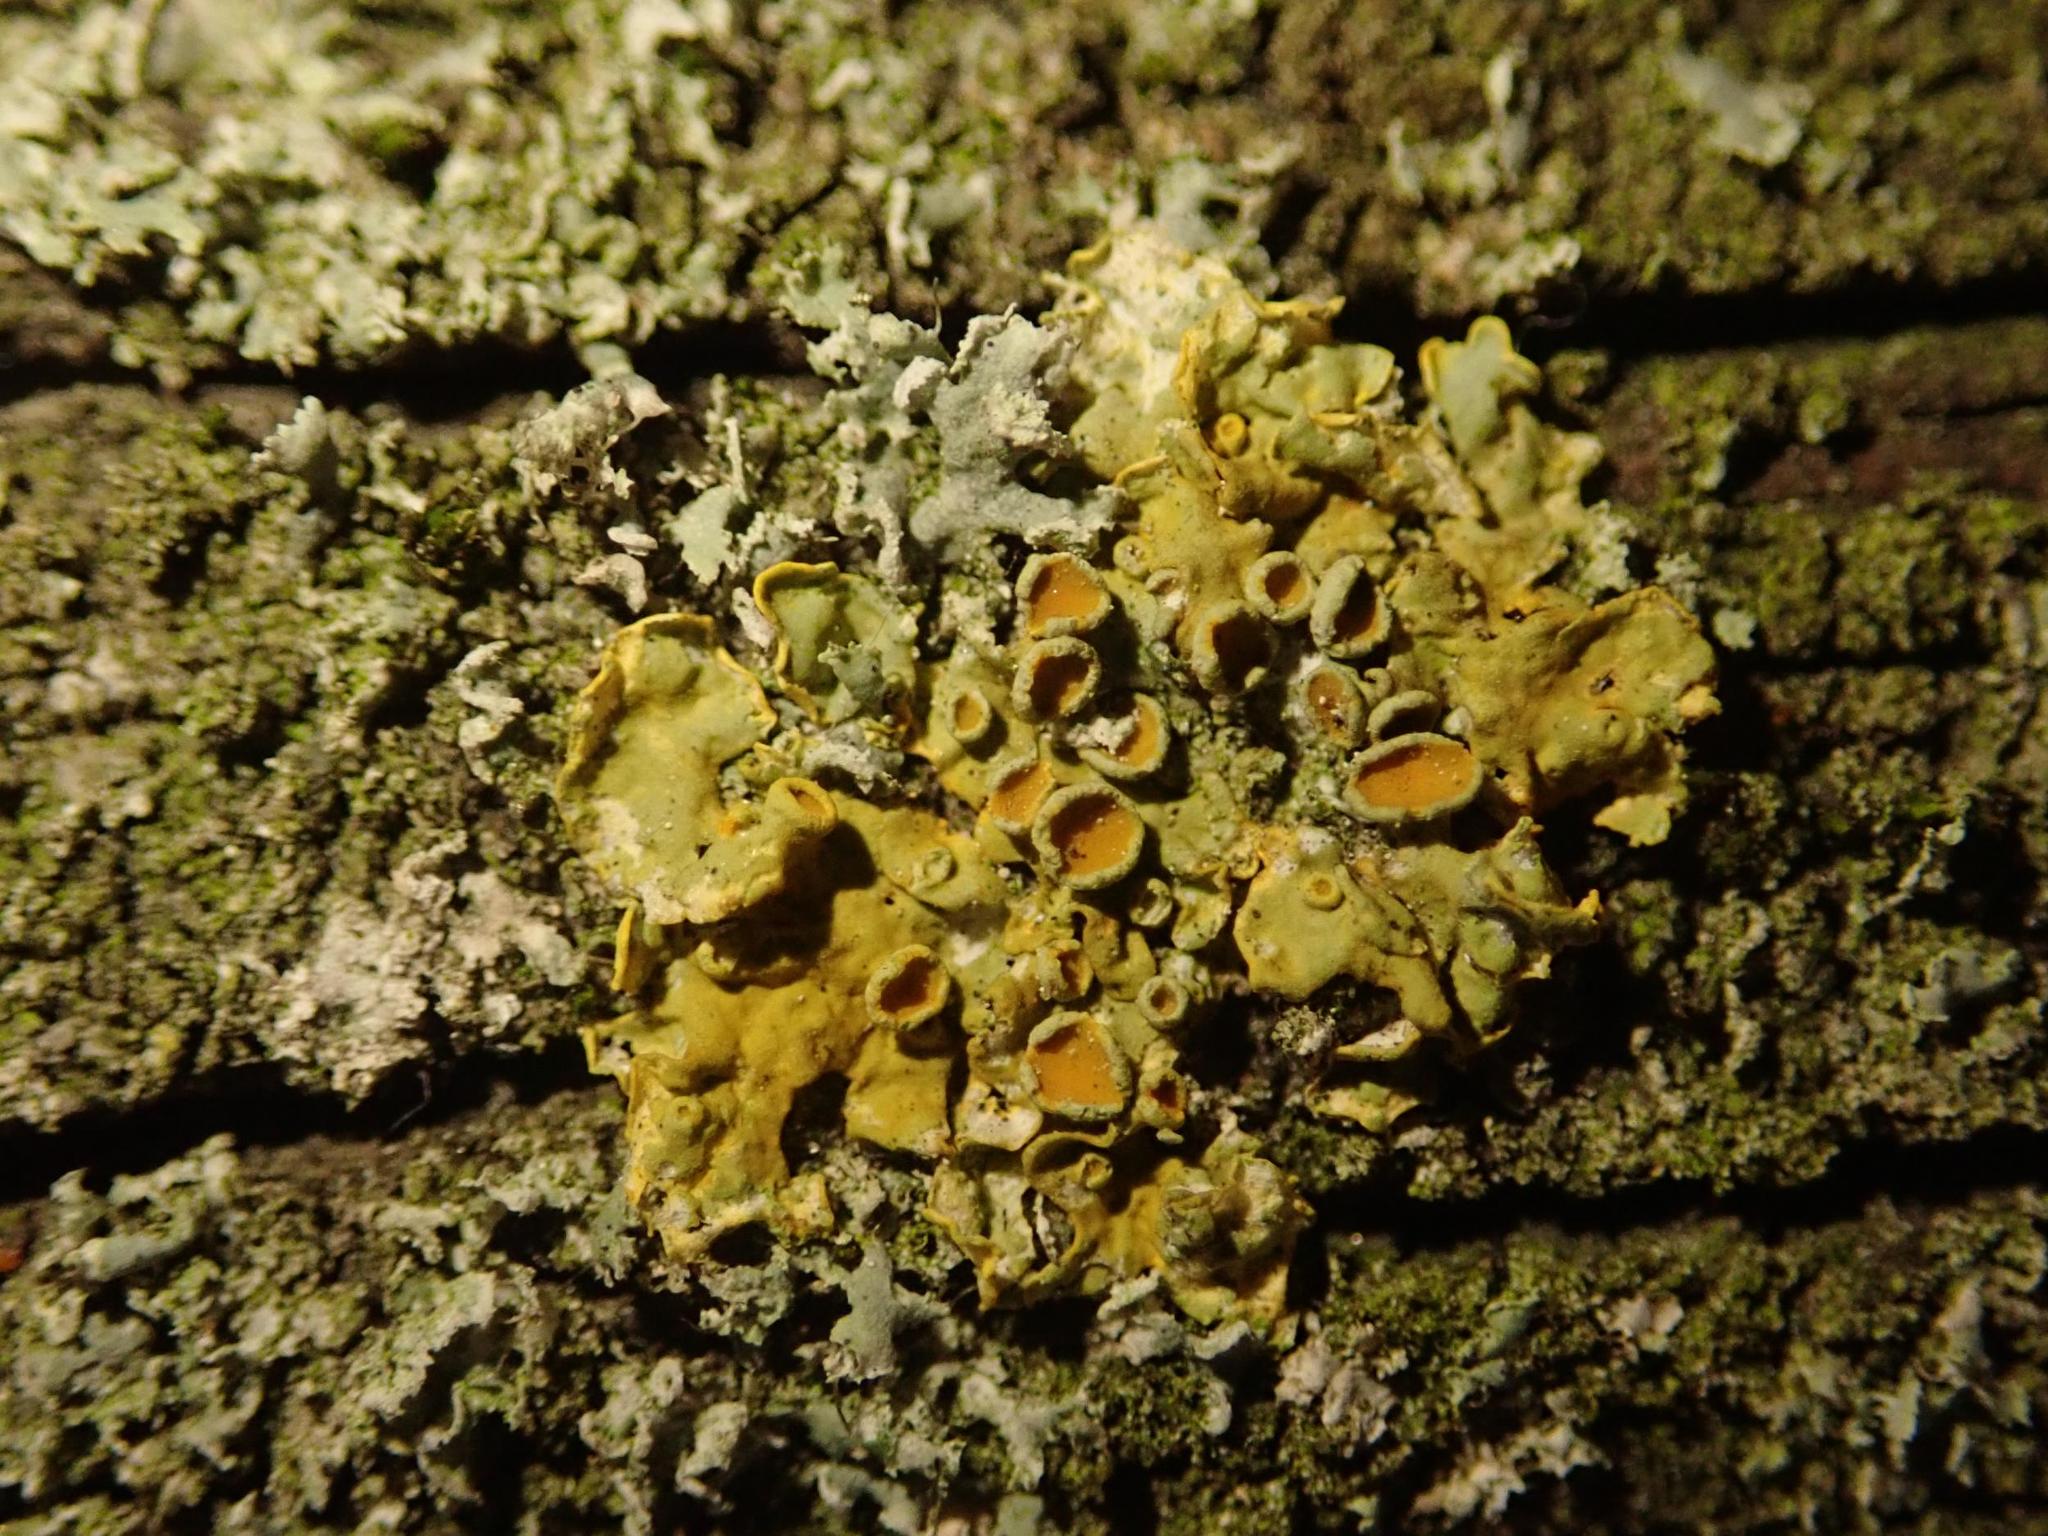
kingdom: Fungi
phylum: Ascomycota
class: Lecanoromycetes
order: Teloschistales
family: Teloschistaceae
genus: Xanthoria
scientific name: Xanthoria parietina
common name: Common orange lichen
